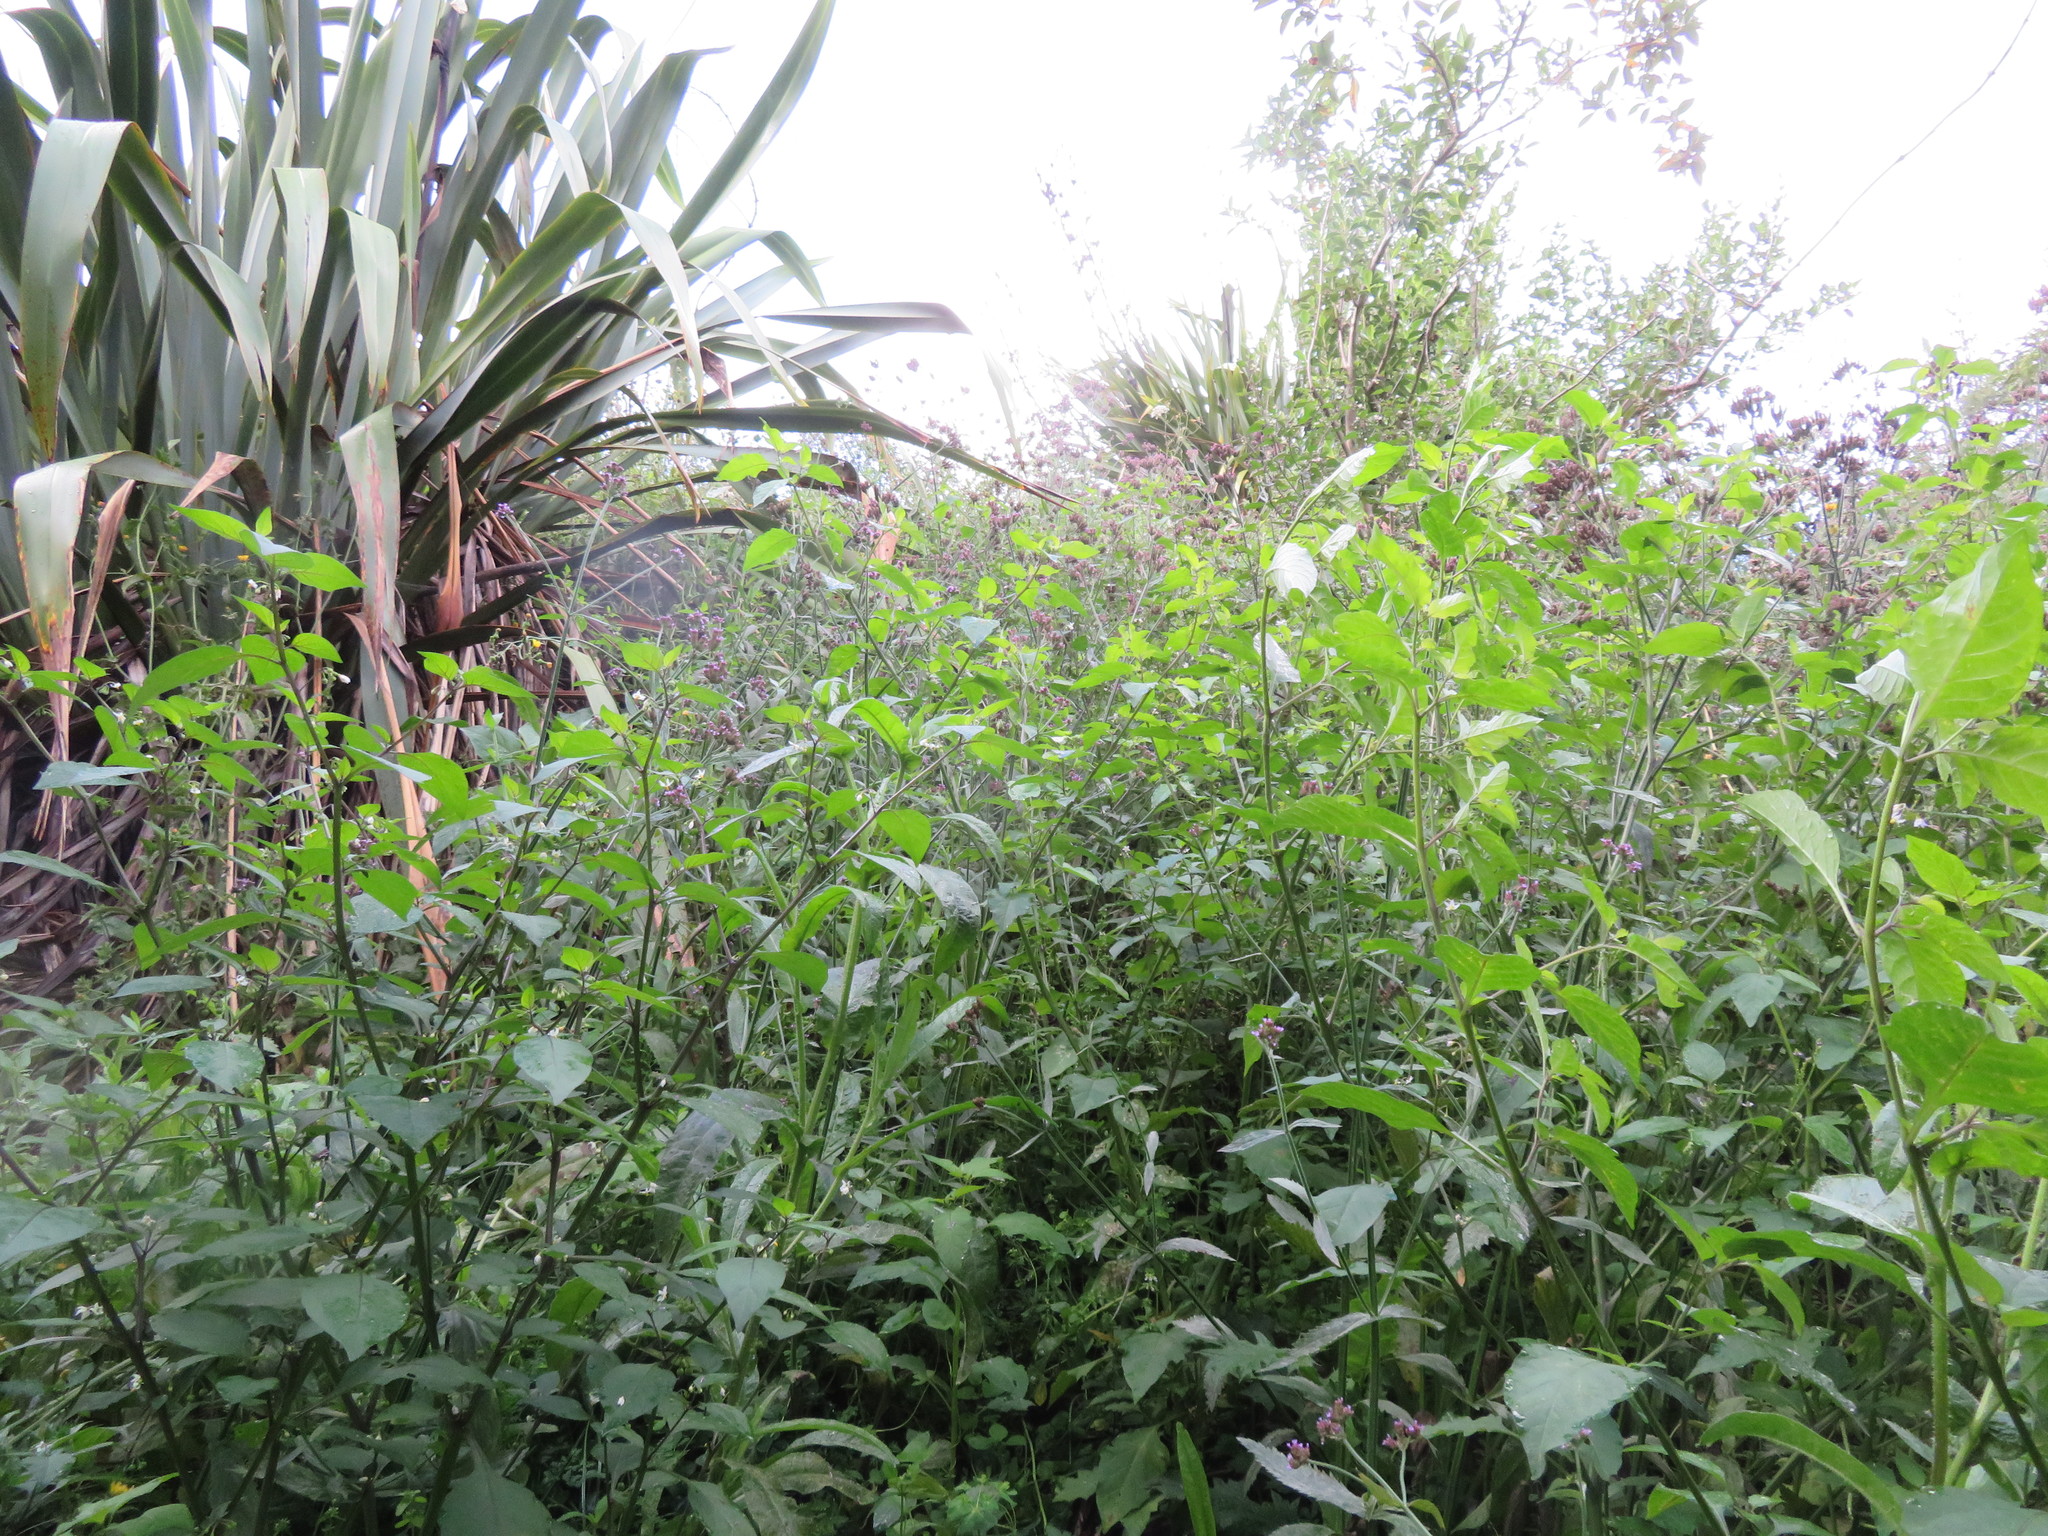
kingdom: Plantae
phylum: Tracheophyta
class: Magnoliopsida
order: Solanales
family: Solanaceae
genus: Solanum
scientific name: Solanum nigrum
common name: Black nightshade
